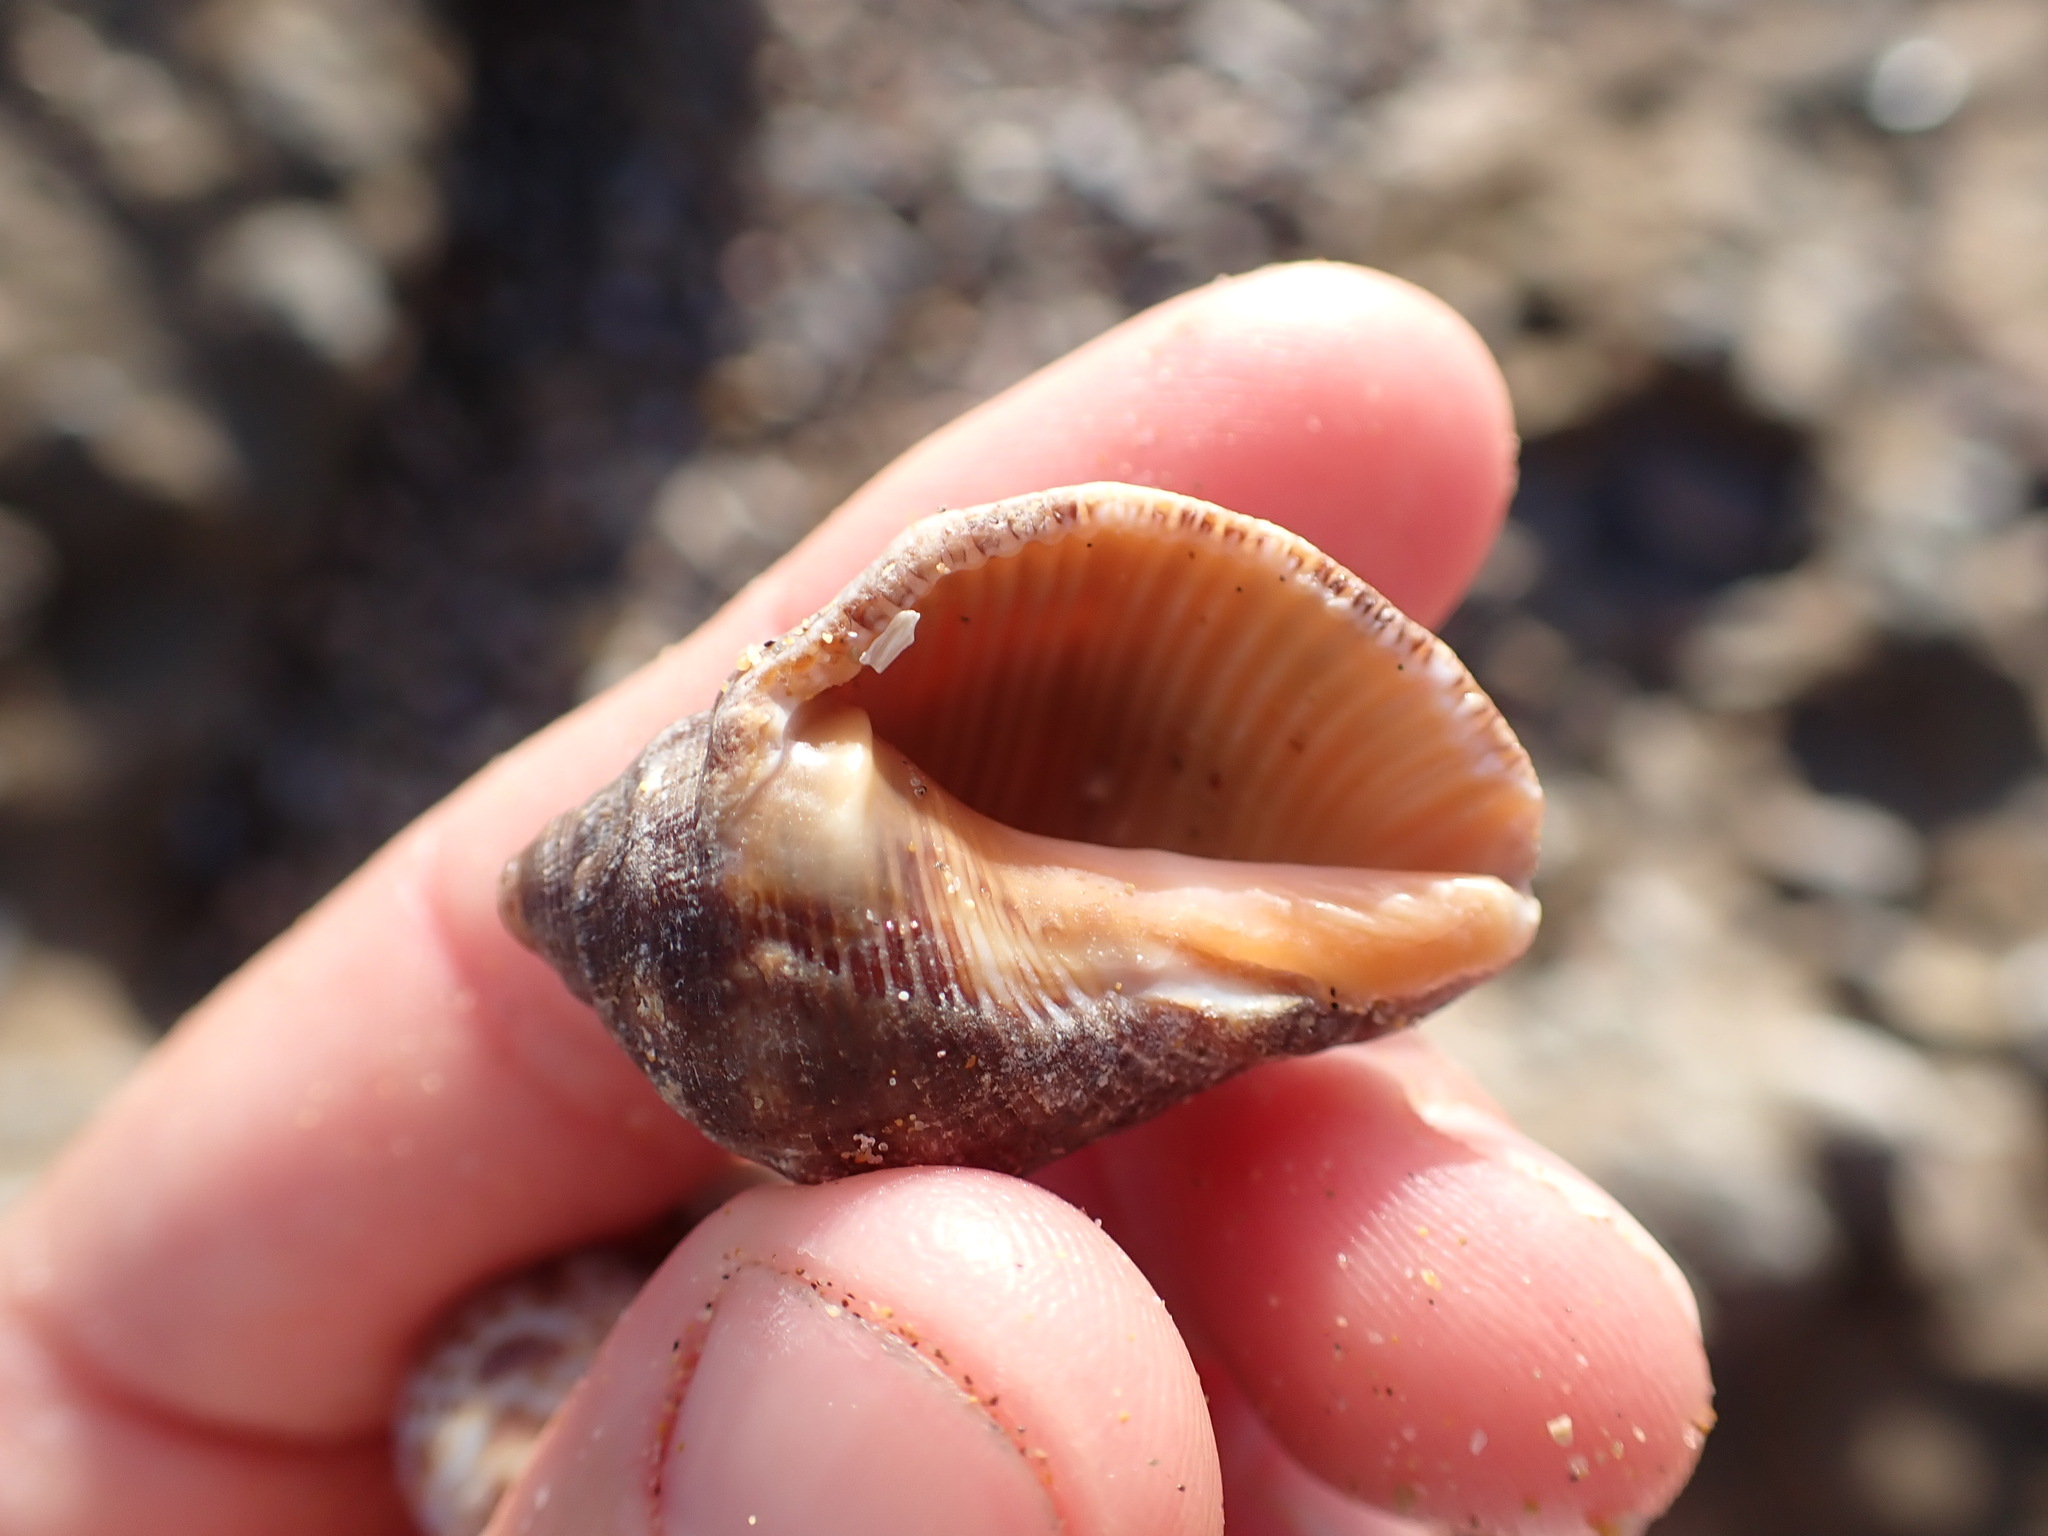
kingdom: Animalia
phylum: Mollusca
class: Gastropoda
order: Neogastropoda
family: Muricidae
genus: Stramonita
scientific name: Stramonita haemastoma
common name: Florida dog winkle
